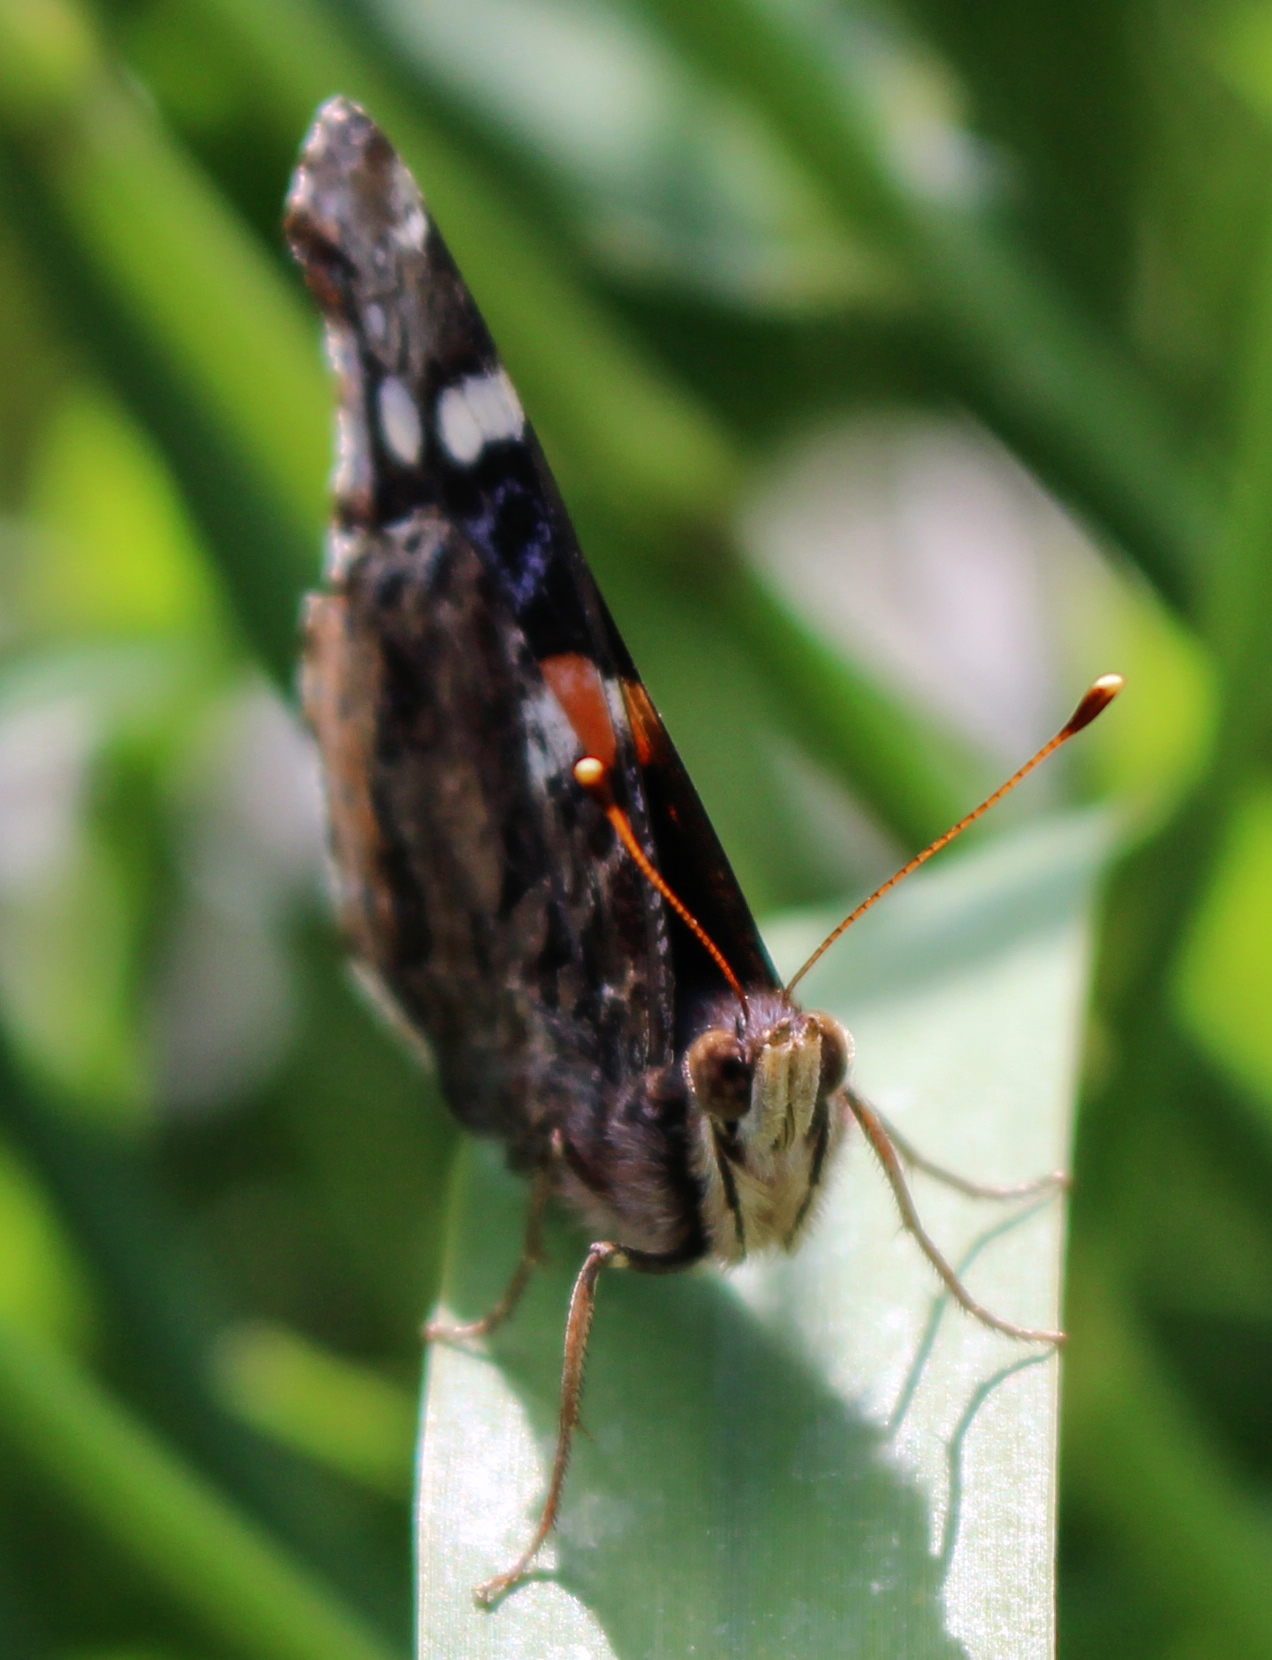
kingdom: Animalia
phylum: Arthropoda
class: Insecta
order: Lepidoptera
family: Nymphalidae
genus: Vanessa
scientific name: Vanessa atalanta
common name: Red admiral
